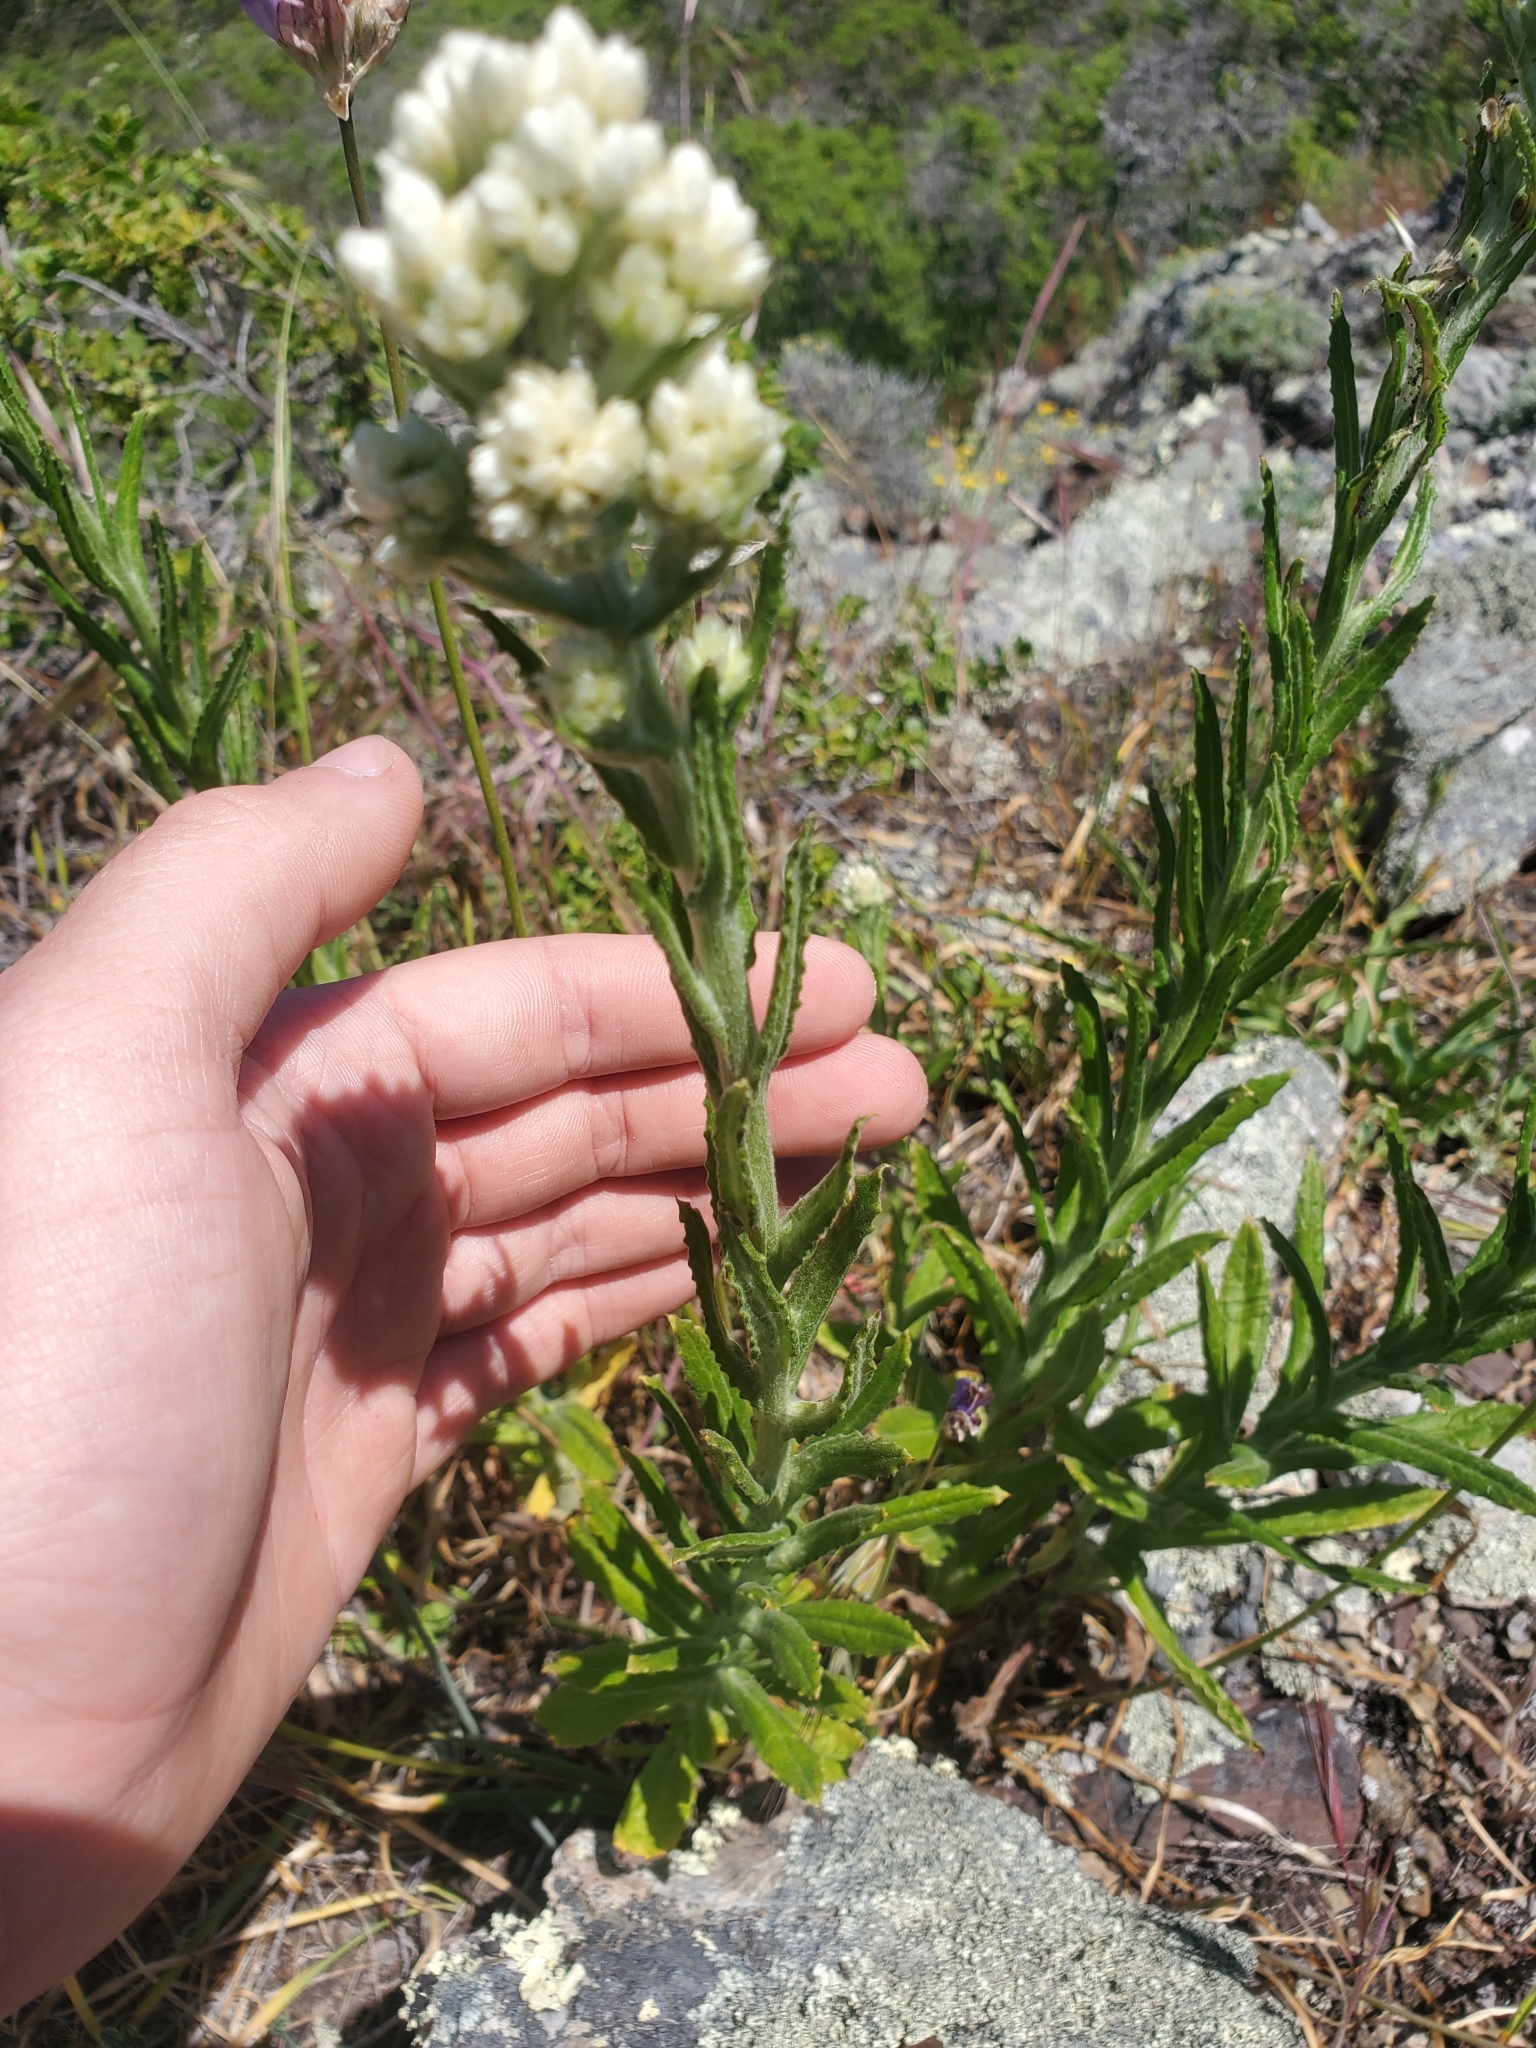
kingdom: Plantae
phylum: Tracheophyta
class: Magnoliopsida
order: Asterales
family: Asteraceae
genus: Pseudognaphalium
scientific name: Pseudognaphalium californicum
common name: California rabbit-tobacco
